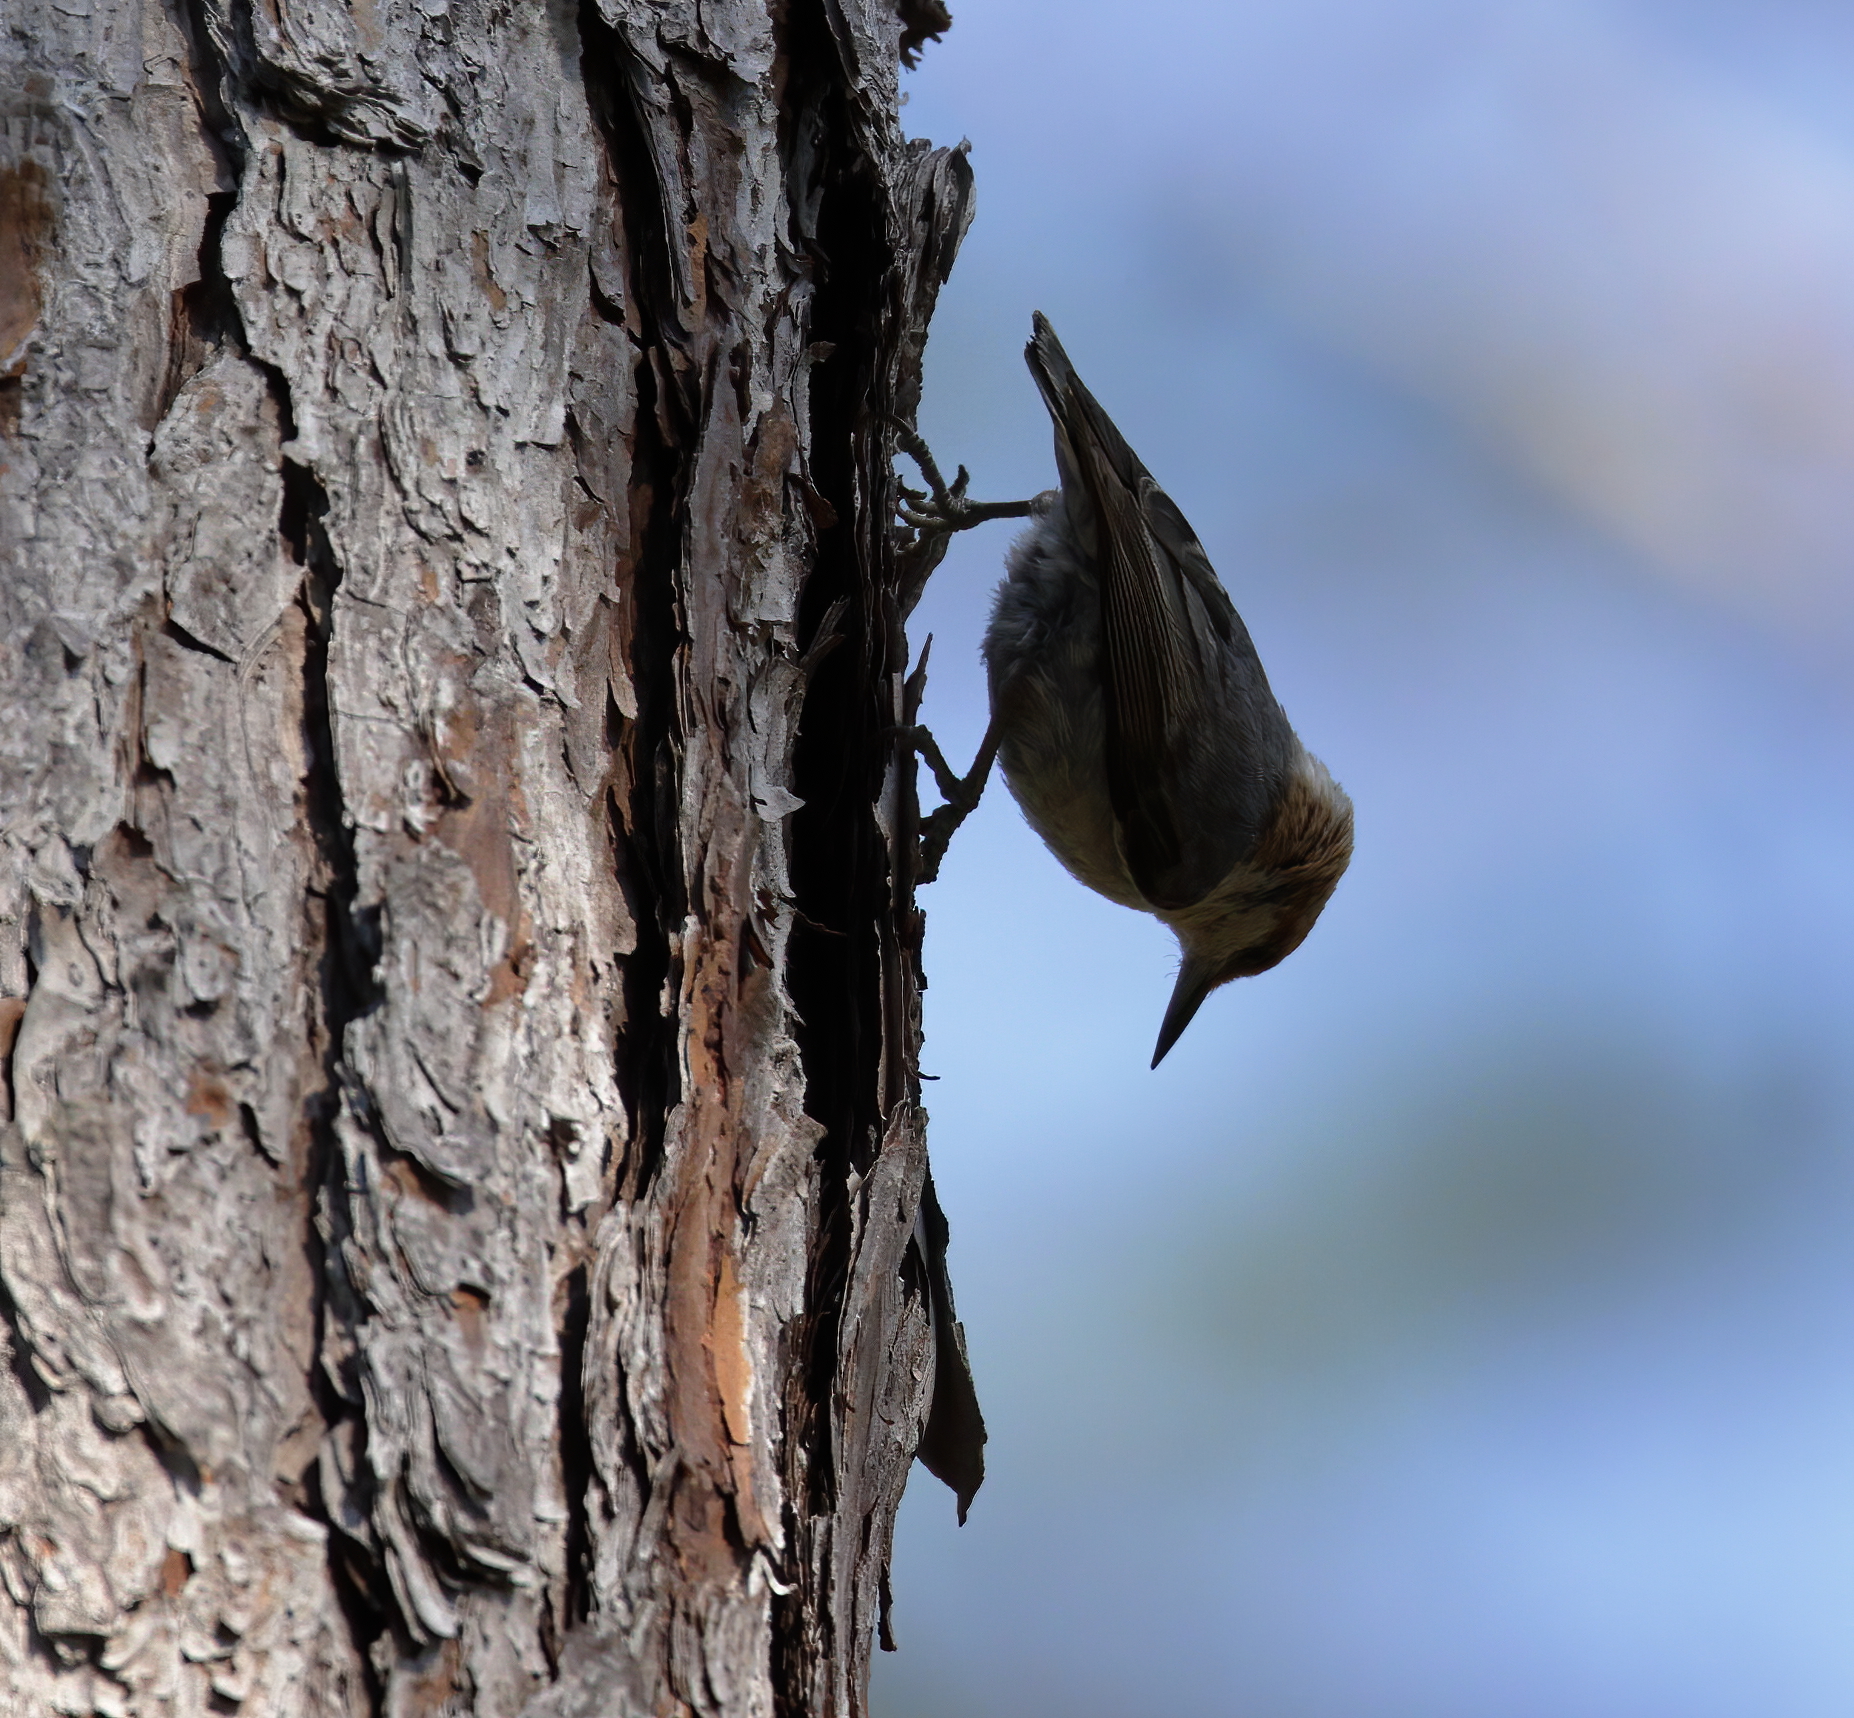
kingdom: Animalia
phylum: Chordata
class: Aves
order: Passeriformes
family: Sittidae
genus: Sitta
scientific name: Sitta pusilla
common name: Brown-headed nuthatch
